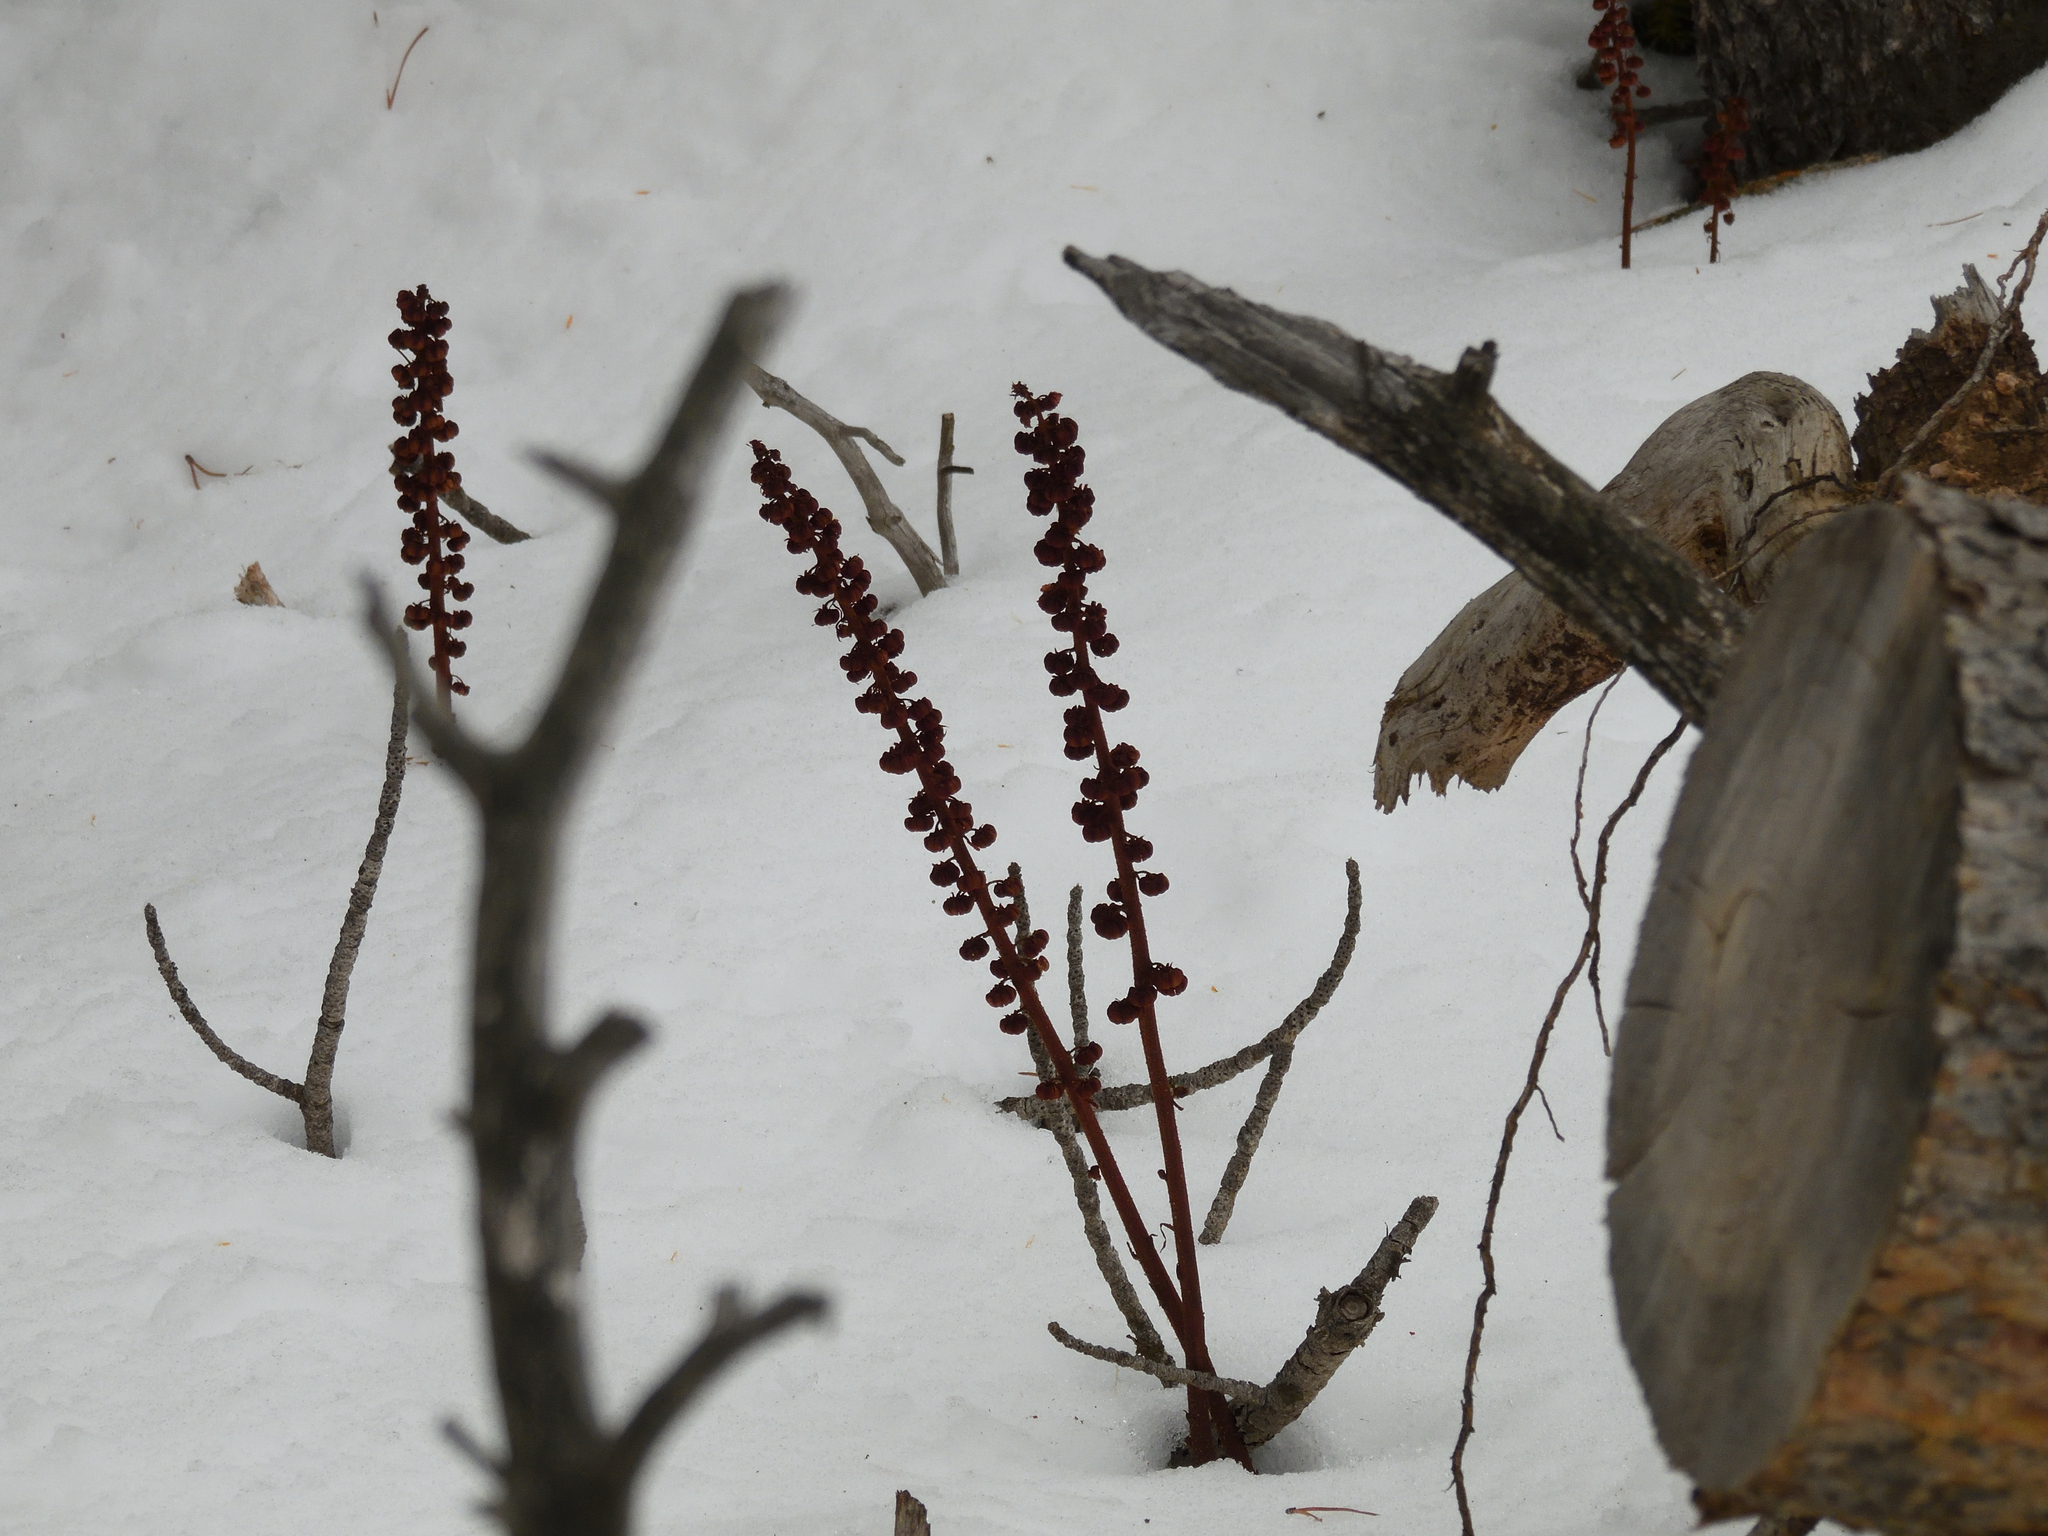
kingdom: Plantae
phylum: Tracheophyta
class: Magnoliopsida
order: Ericales
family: Ericaceae
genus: Pterospora
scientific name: Pterospora andromedea
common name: Giant bird's-nest
